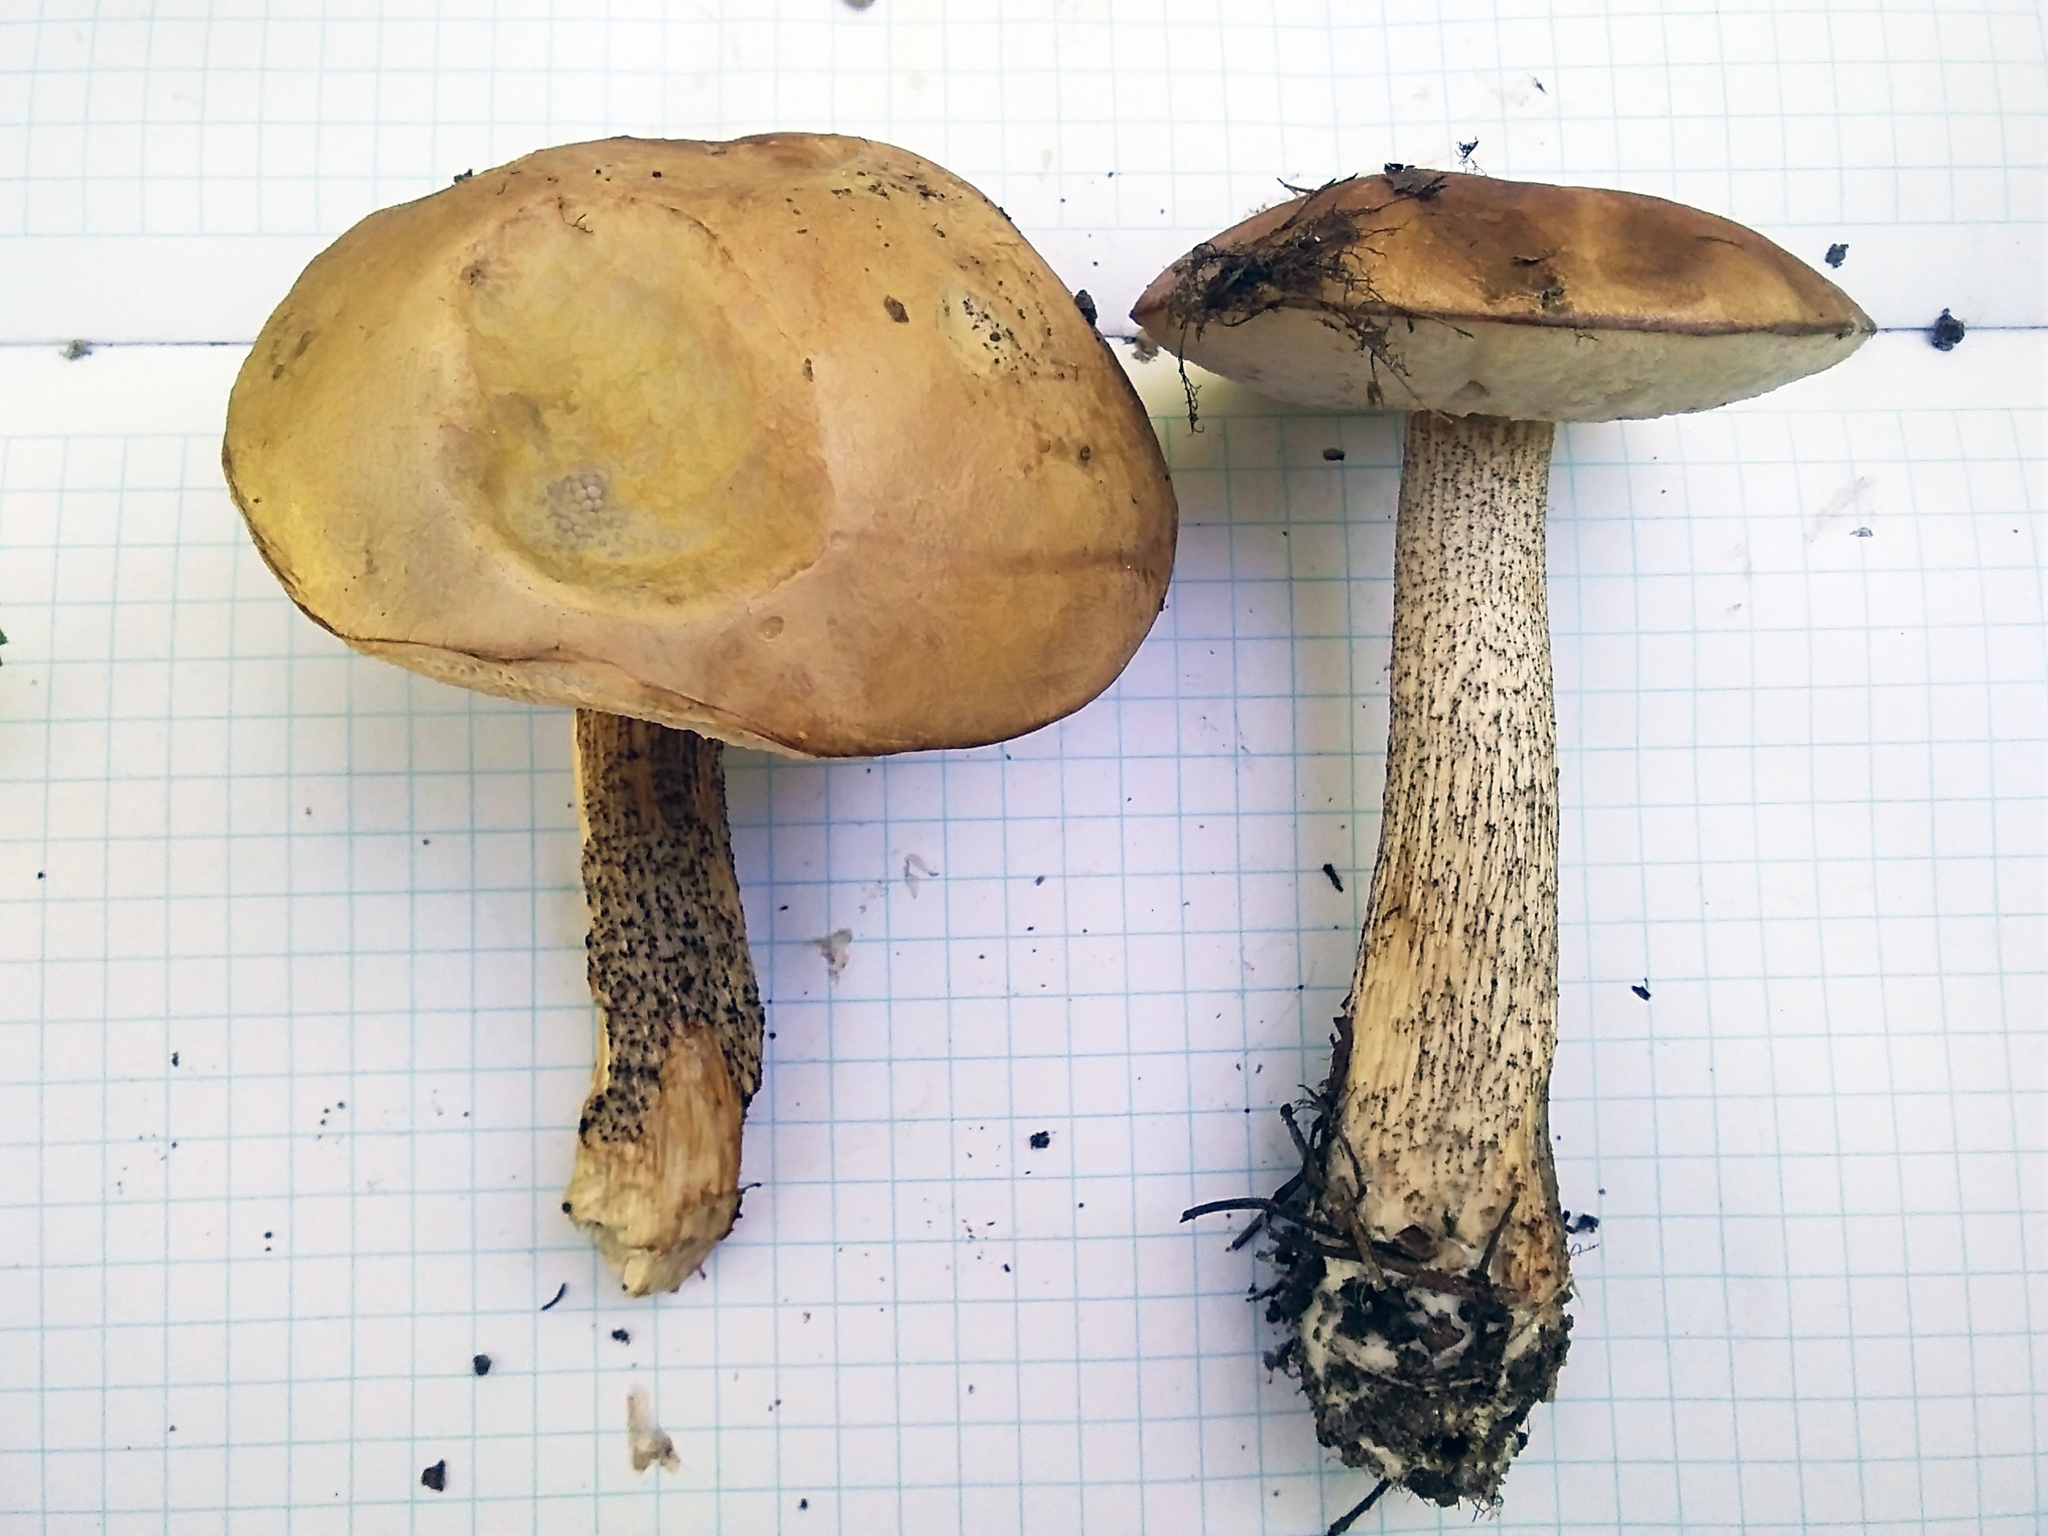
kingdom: Fungi
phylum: Basidiomycota
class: Agaricomycetes
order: Boletales
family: Boletaceae
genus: Leccinum
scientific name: Leccinum scabrum
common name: Blushing bolete
